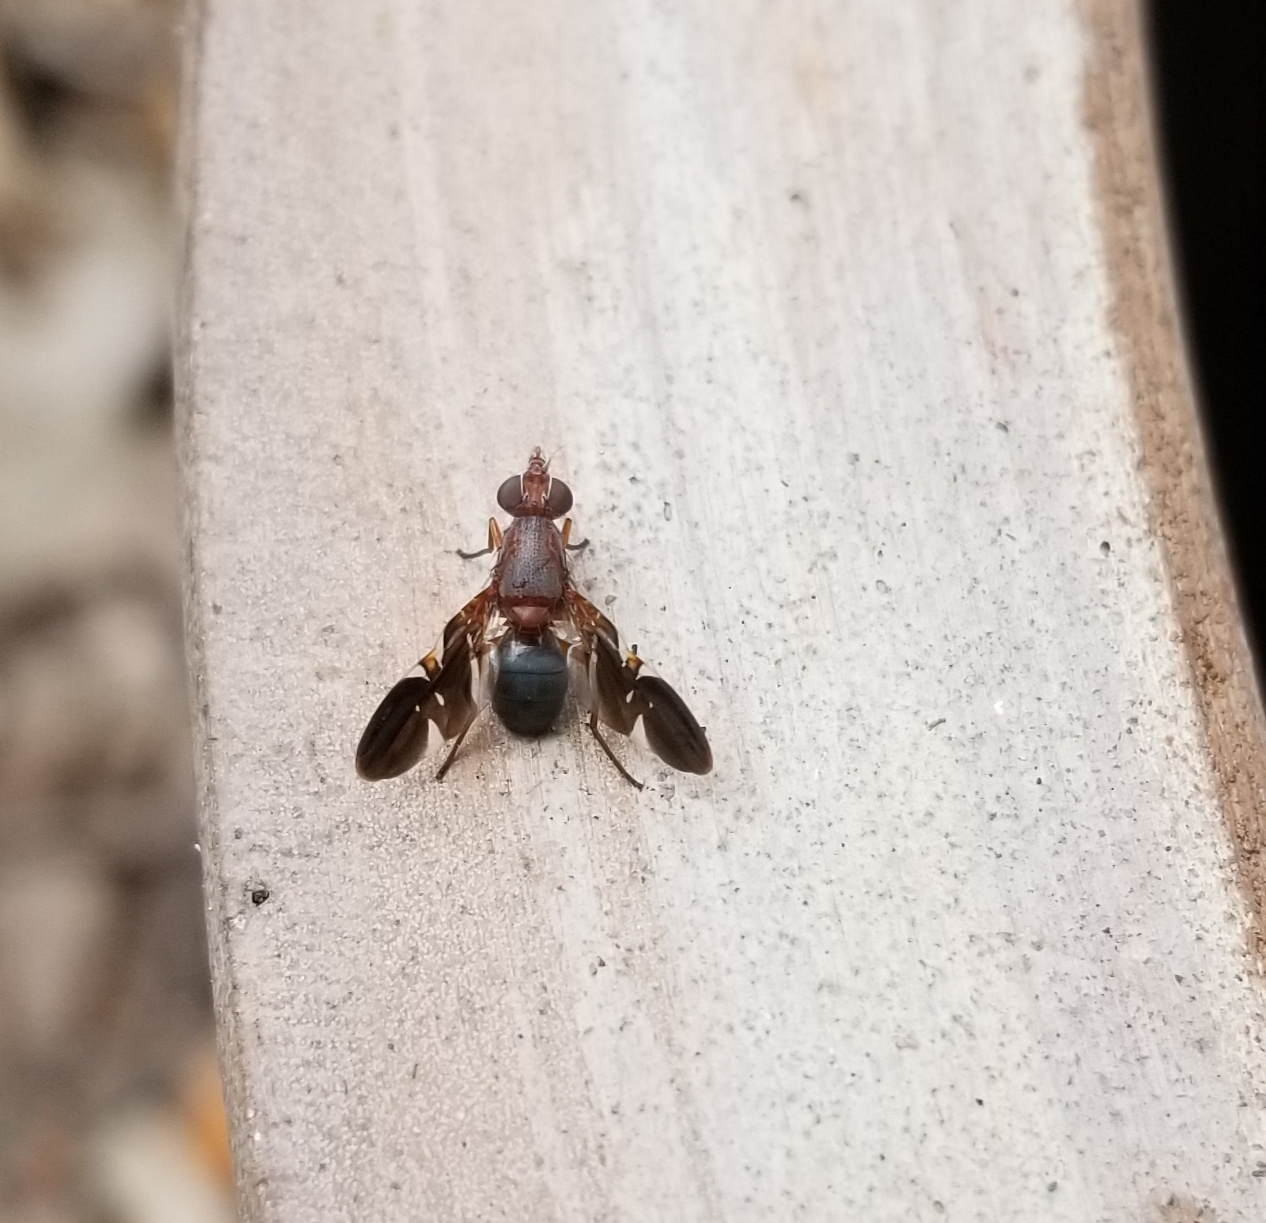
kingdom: Animalia
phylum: Arthropoda
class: Insecta
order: Diptera
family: Ulidiidae
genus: Delphinia
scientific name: Delphinia picta
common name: Common picture-winged fly
